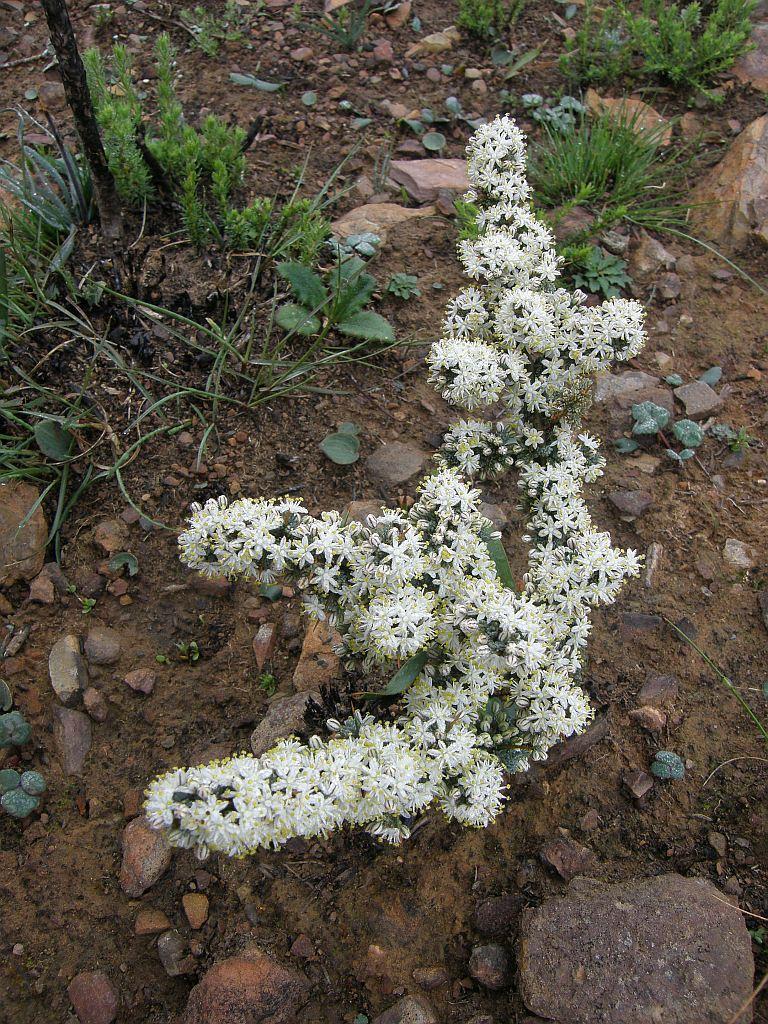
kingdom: Plantae
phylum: Tracheophyta
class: Liliopsida
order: Asparagales
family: Asparagaceae
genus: Asparagus
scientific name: Asparagus capensis
